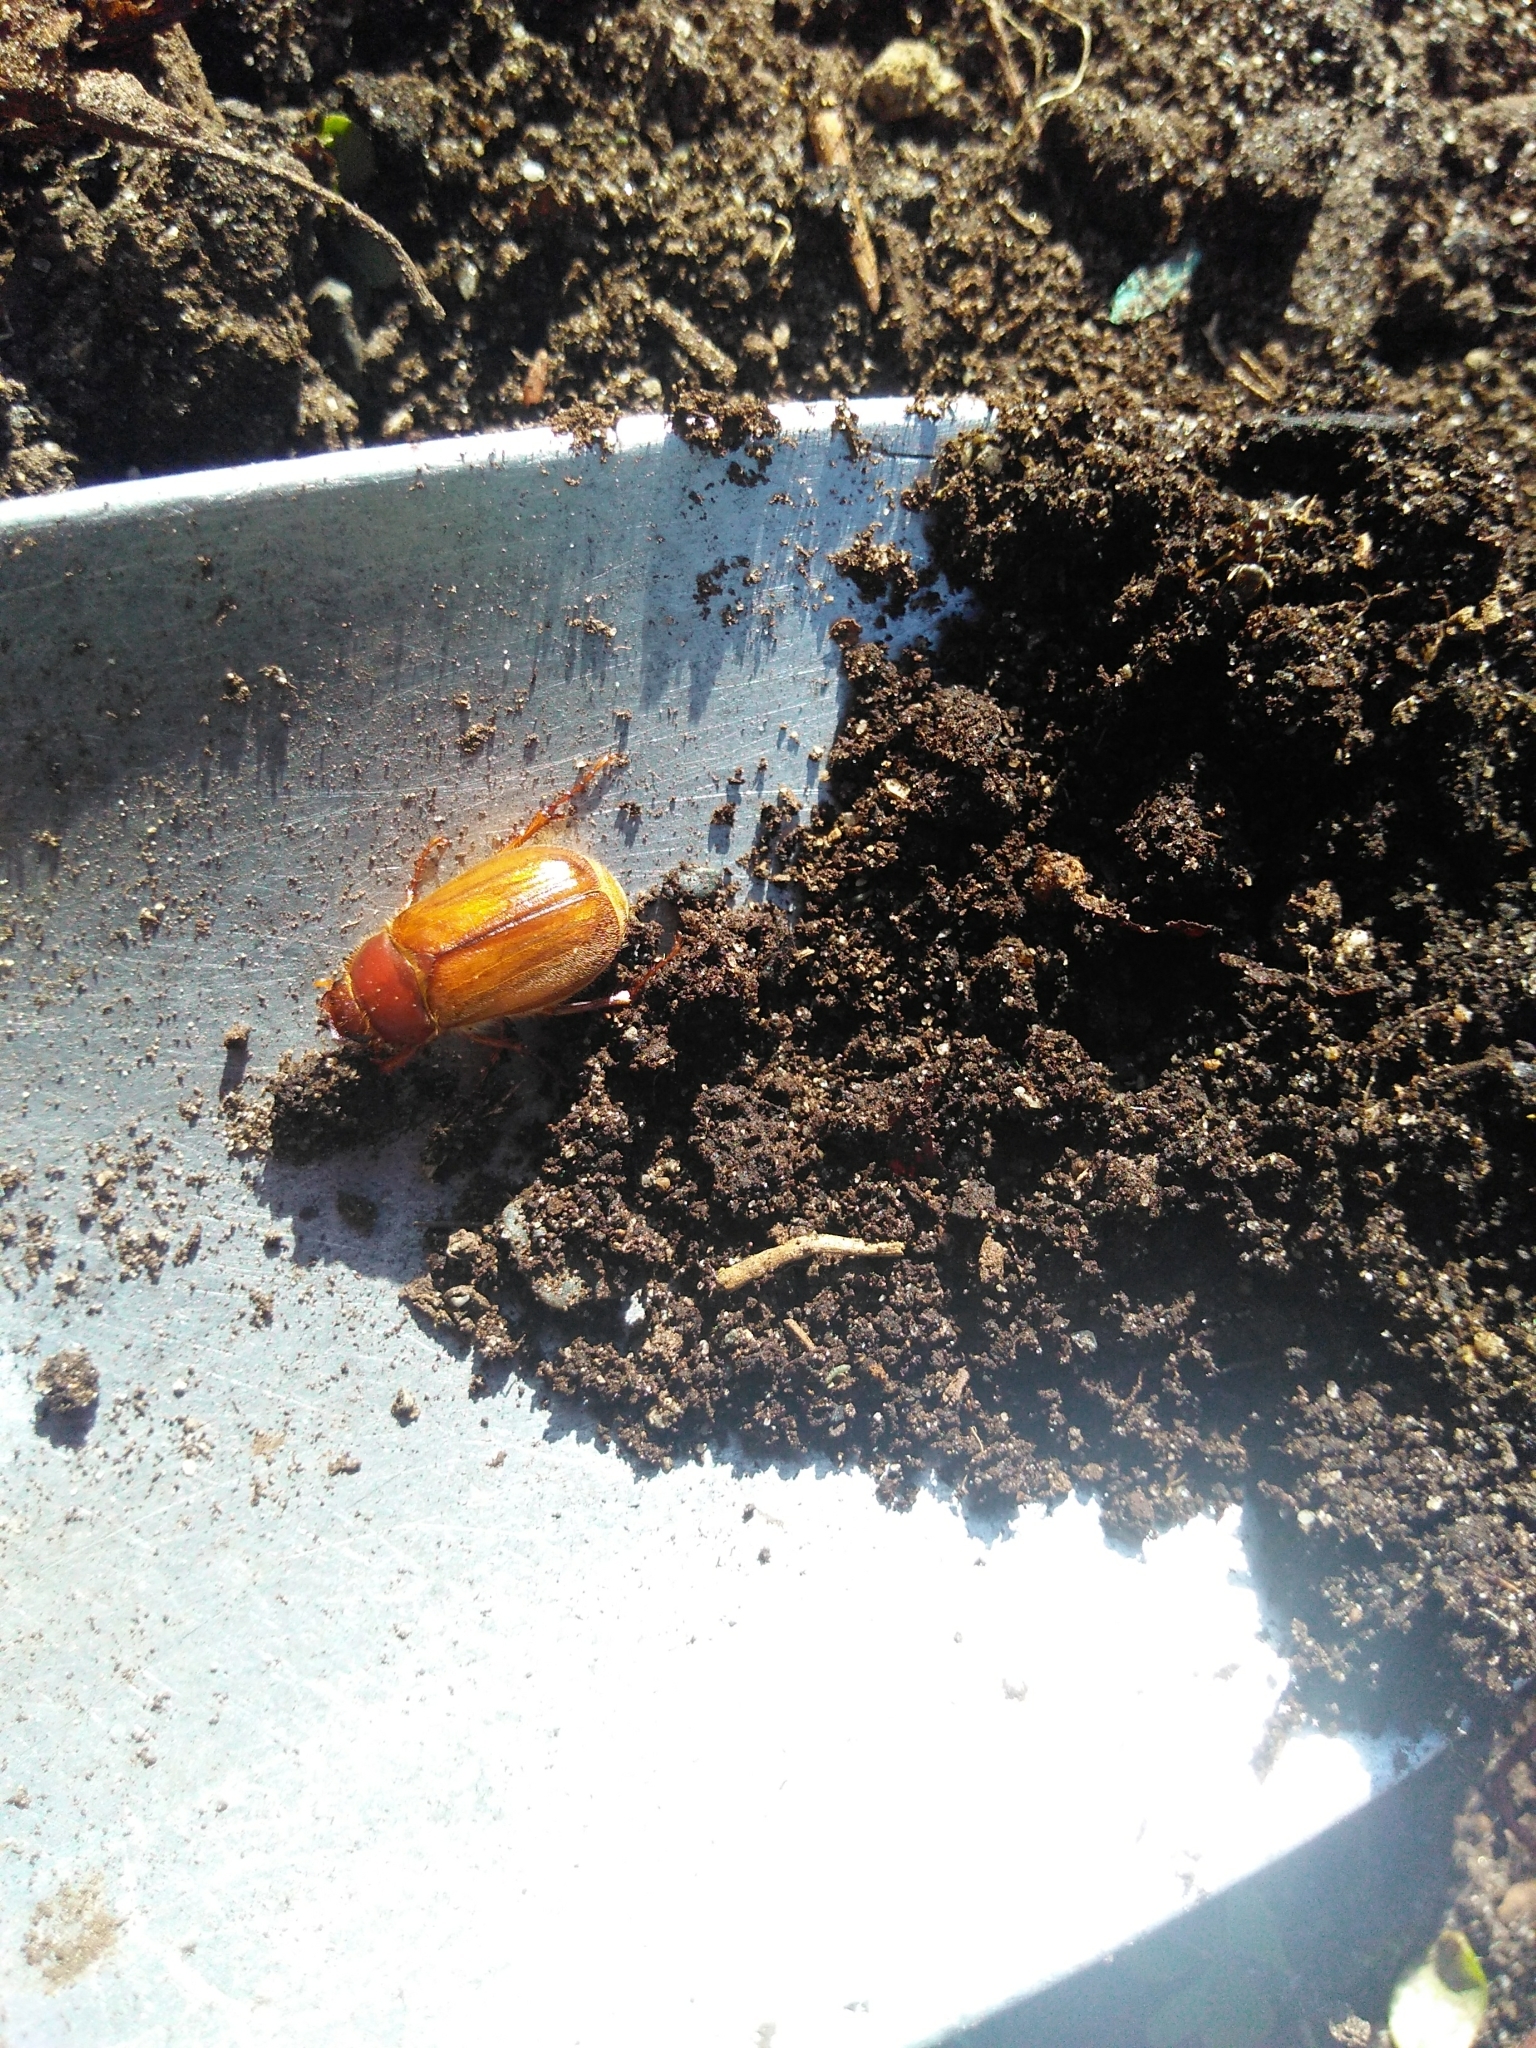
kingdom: Animalia
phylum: Arthropoda
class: Insecta
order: Coleoptera
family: Scarabaeidae
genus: Amphimallon
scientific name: Amphimallon majale
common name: European chafer
